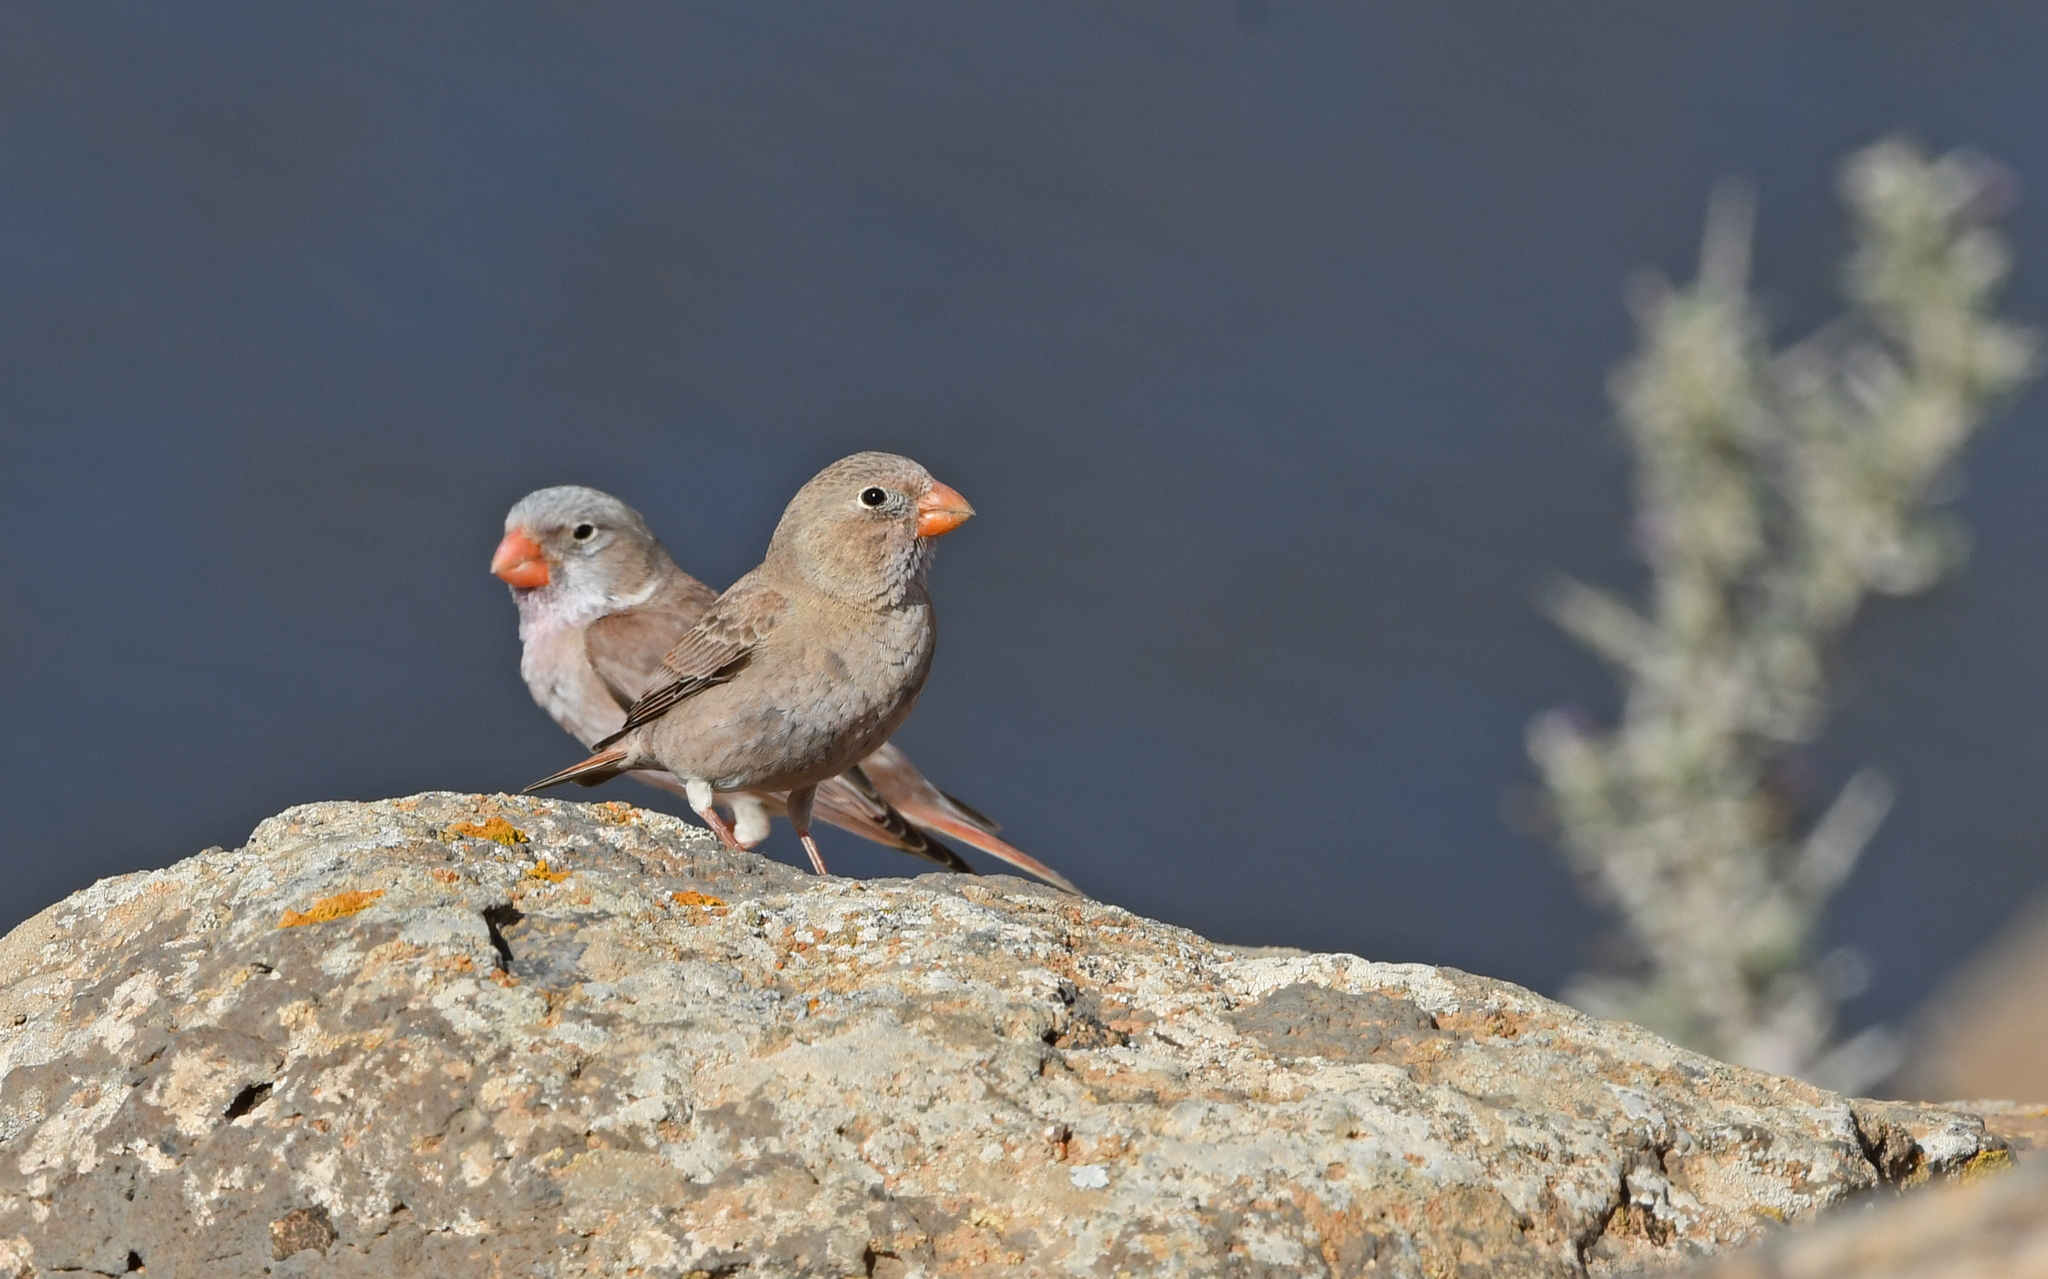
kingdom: Animalia
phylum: Chordata
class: Aves
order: Passeriformes
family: Fringillidae
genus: Bucanetes
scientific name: Bucanetes githagineus
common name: Trumpeter finch
